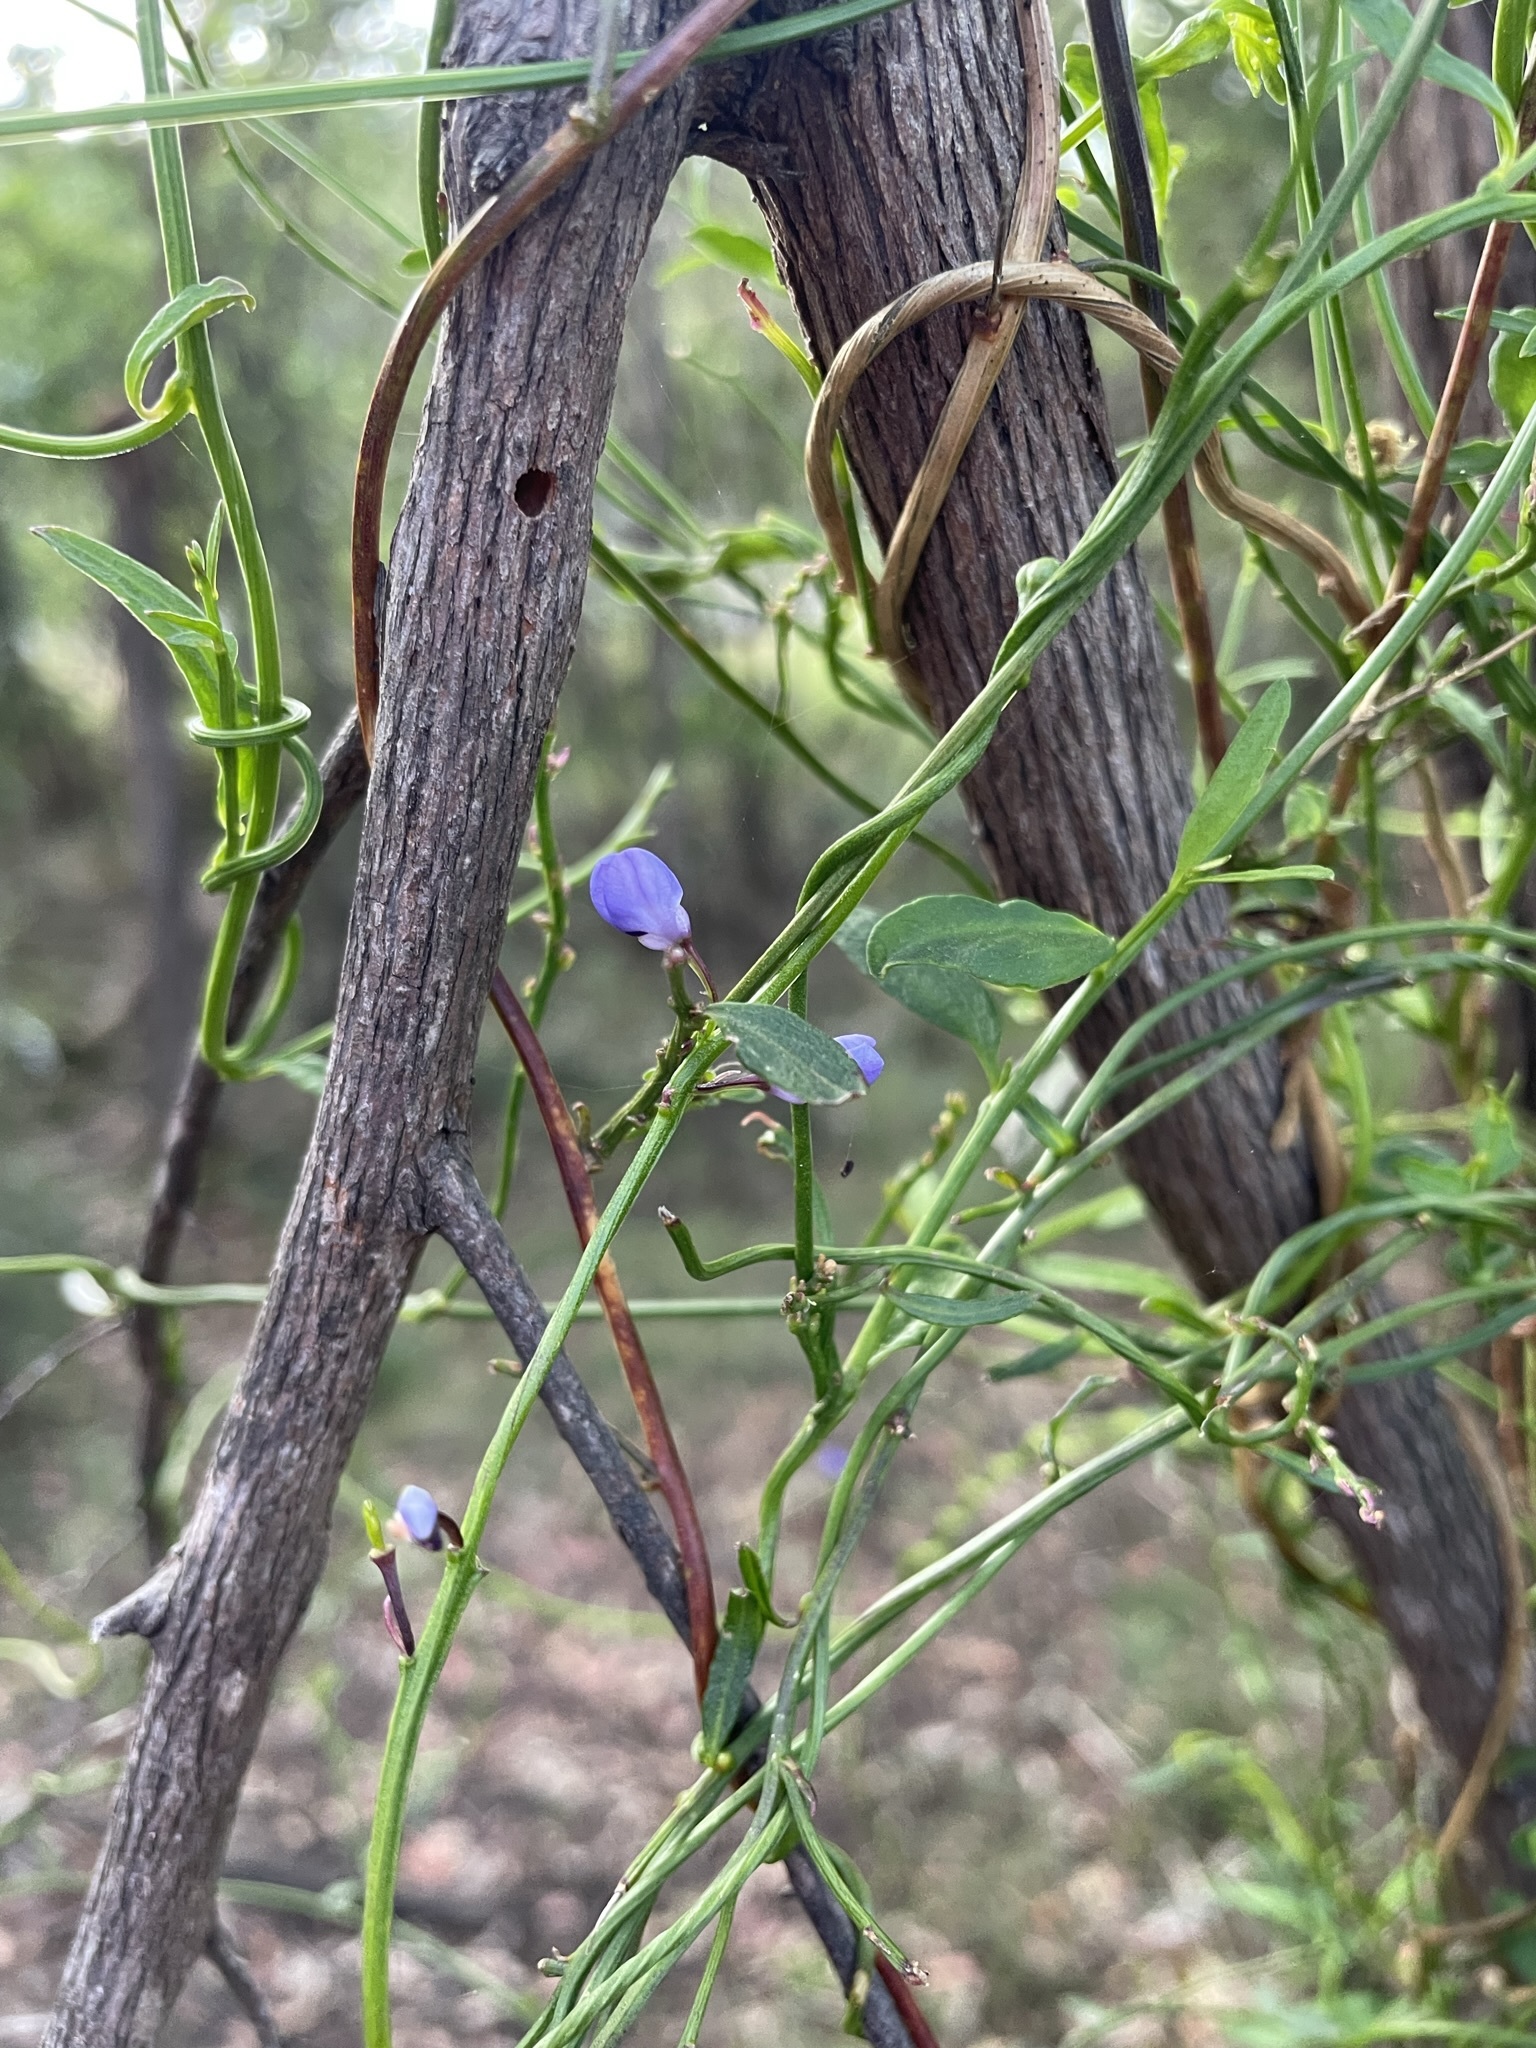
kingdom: Plantae
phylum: Tracheophyta
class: Magnoliopsida
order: Fabales
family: Polygalaceae
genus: Comesperma
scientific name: Comesperma volubile
